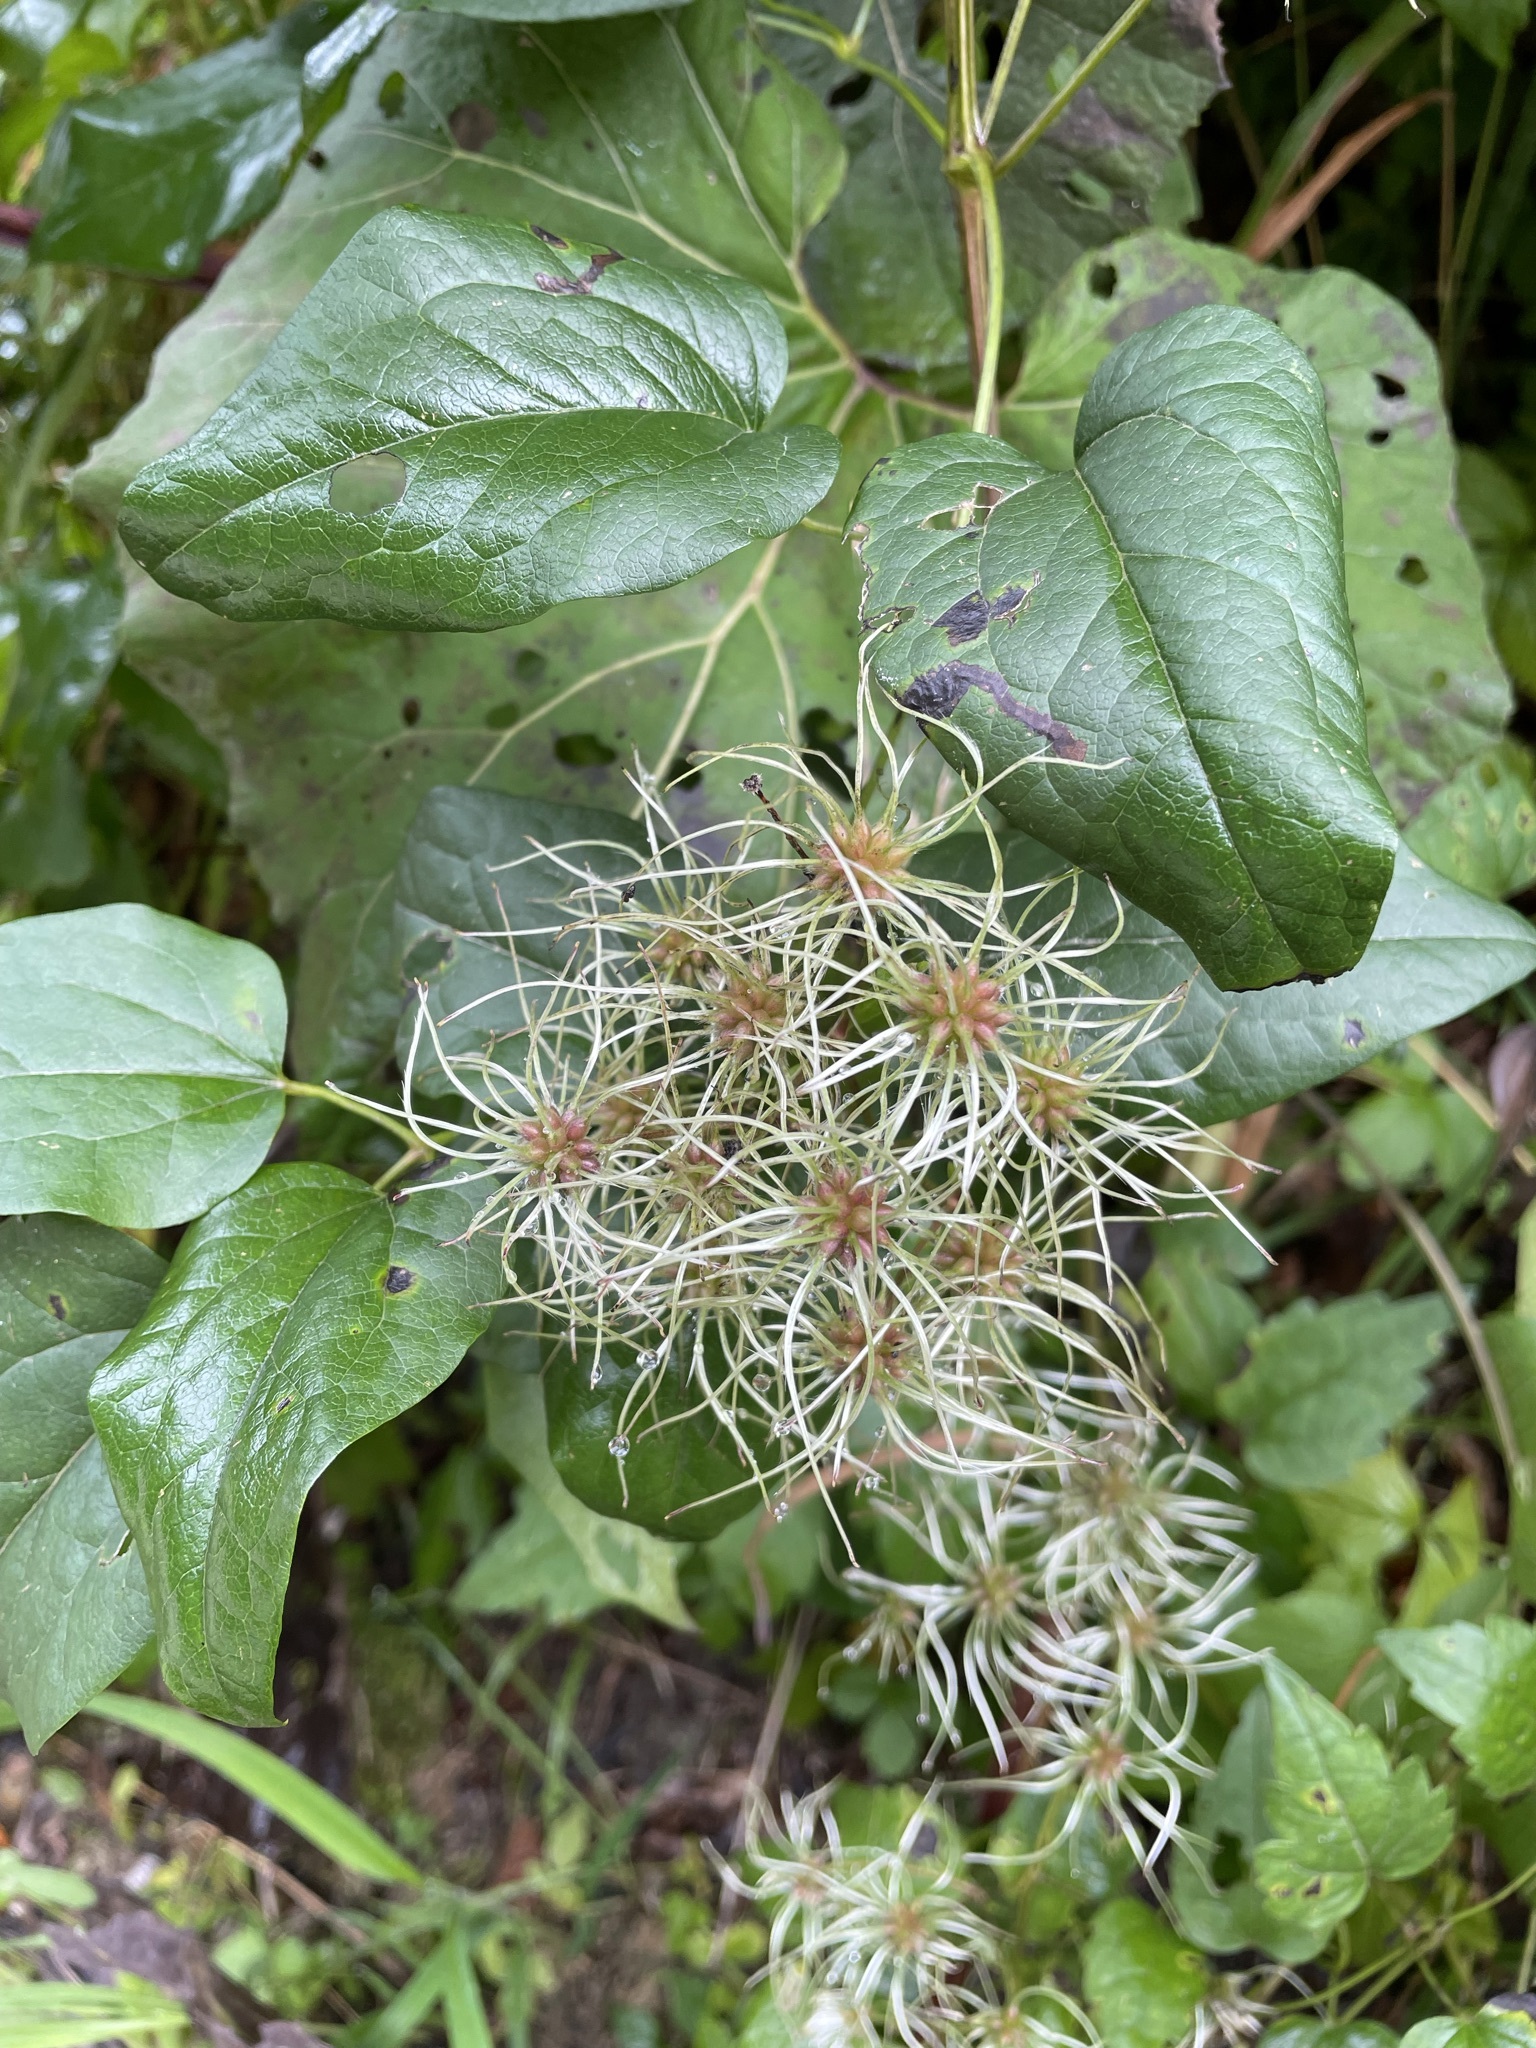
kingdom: Plantae
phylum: Tracheophyta
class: Magnoliopsida
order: Ranunculales
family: Ranunculaceae
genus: Clematis
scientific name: Clematis vitalba
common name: Evergreen clematis
